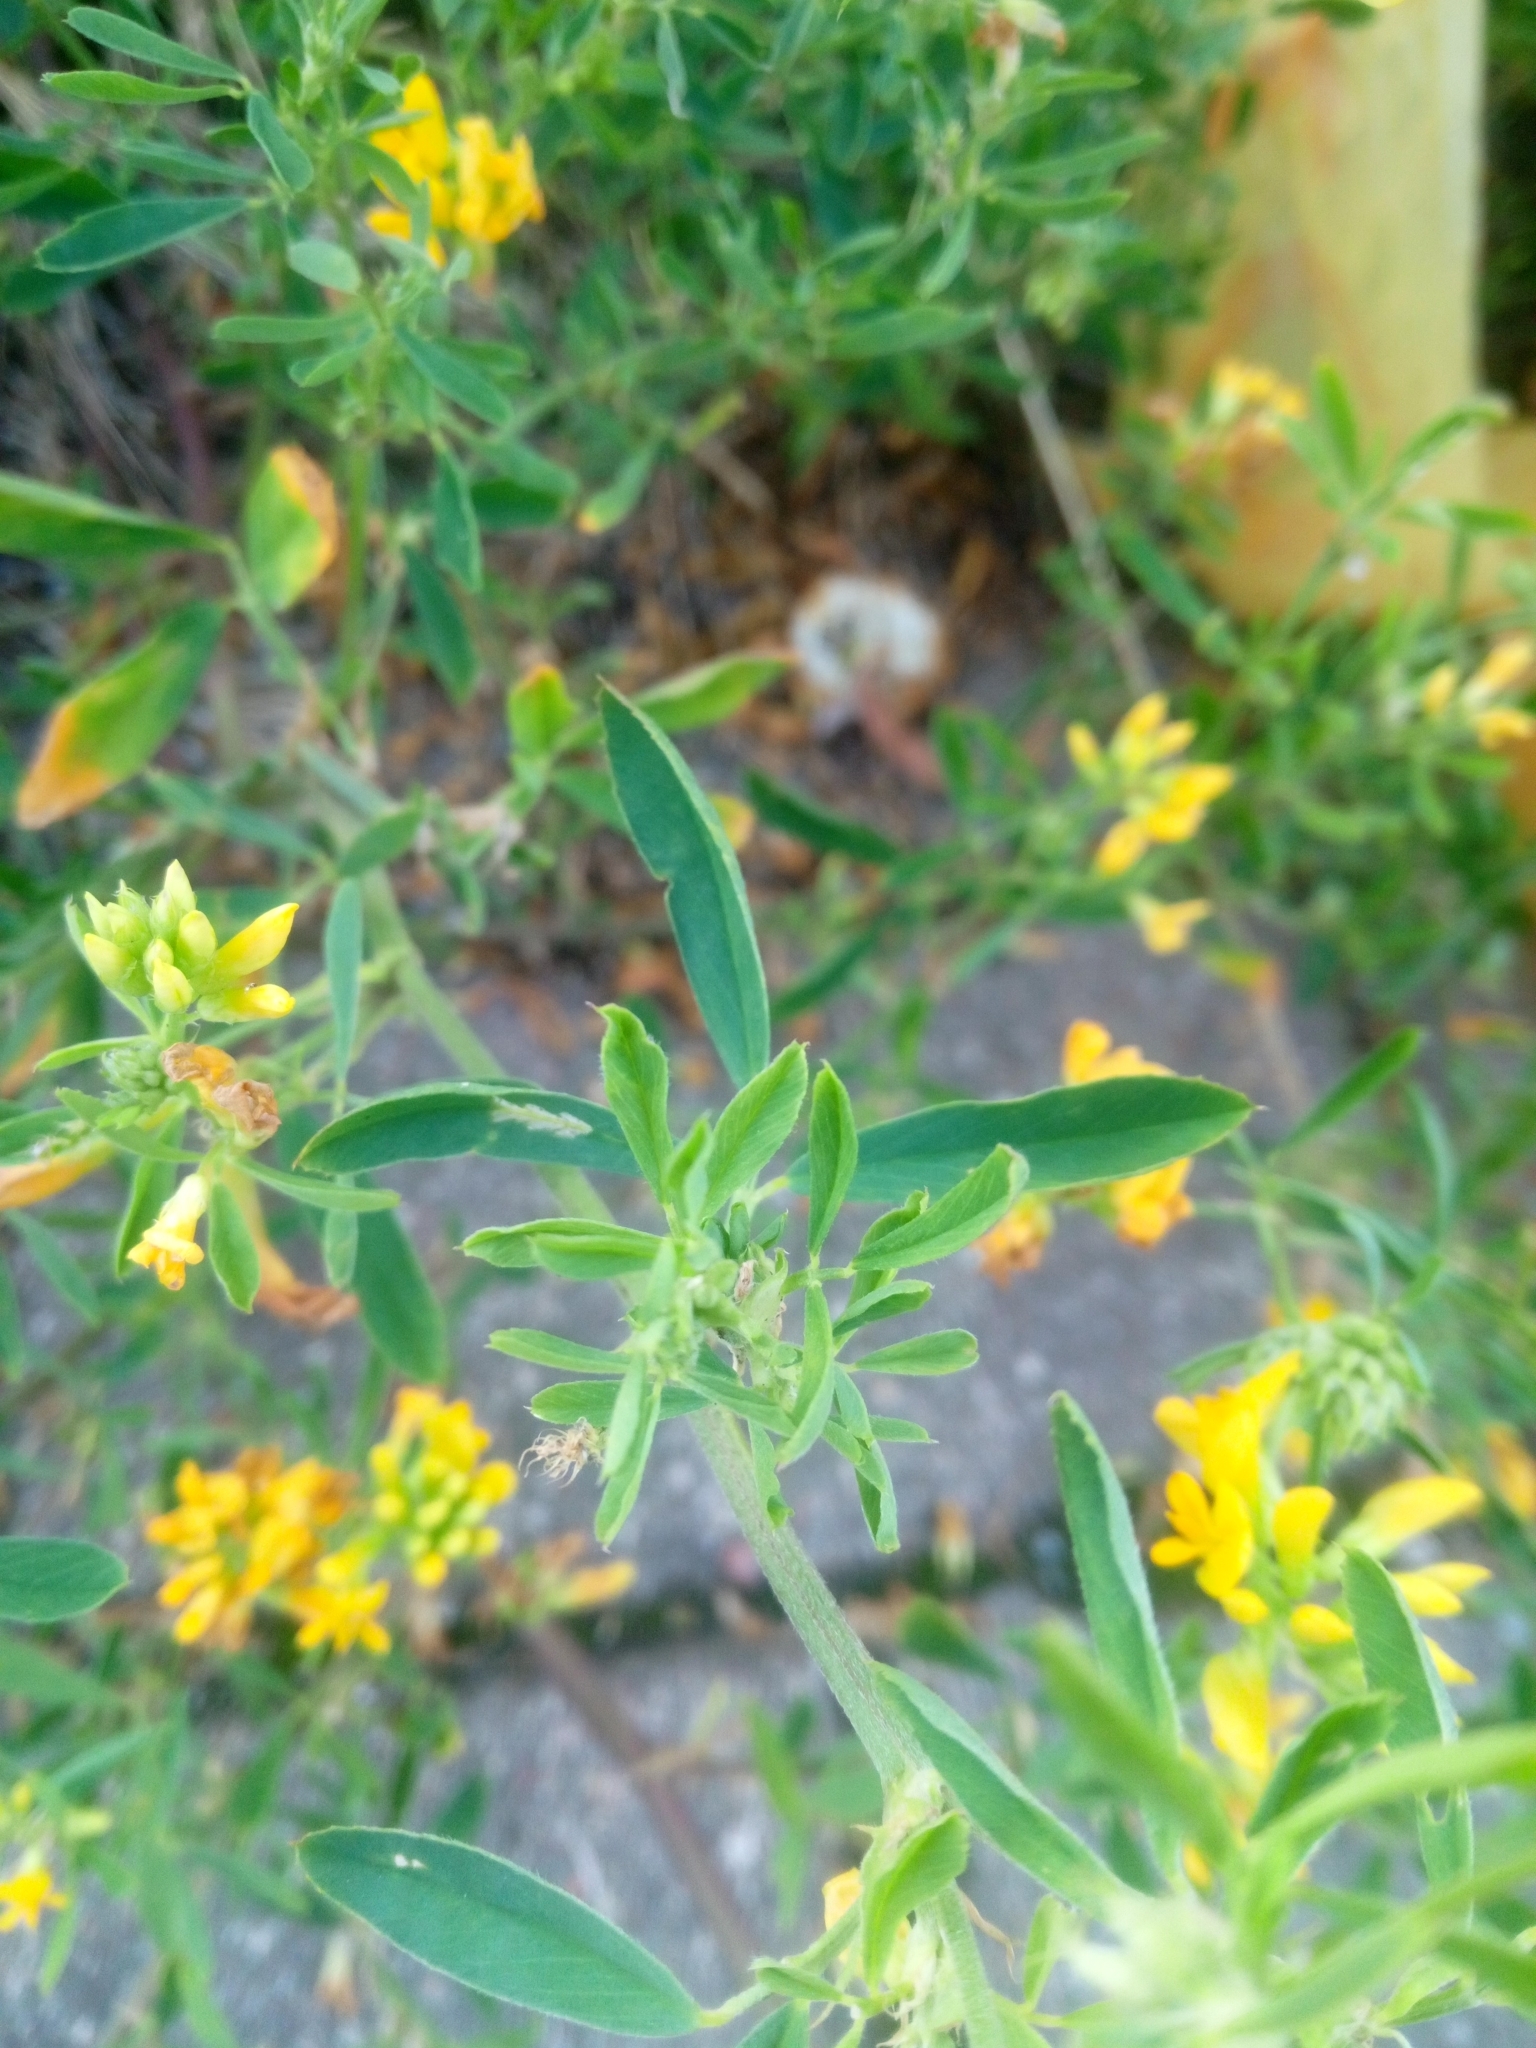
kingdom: Plantae
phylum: Tracheophyta
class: Magnoliopsida
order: Fabales
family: Fabaceae
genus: Medicago
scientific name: Medicago falcata
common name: Sickle medick
